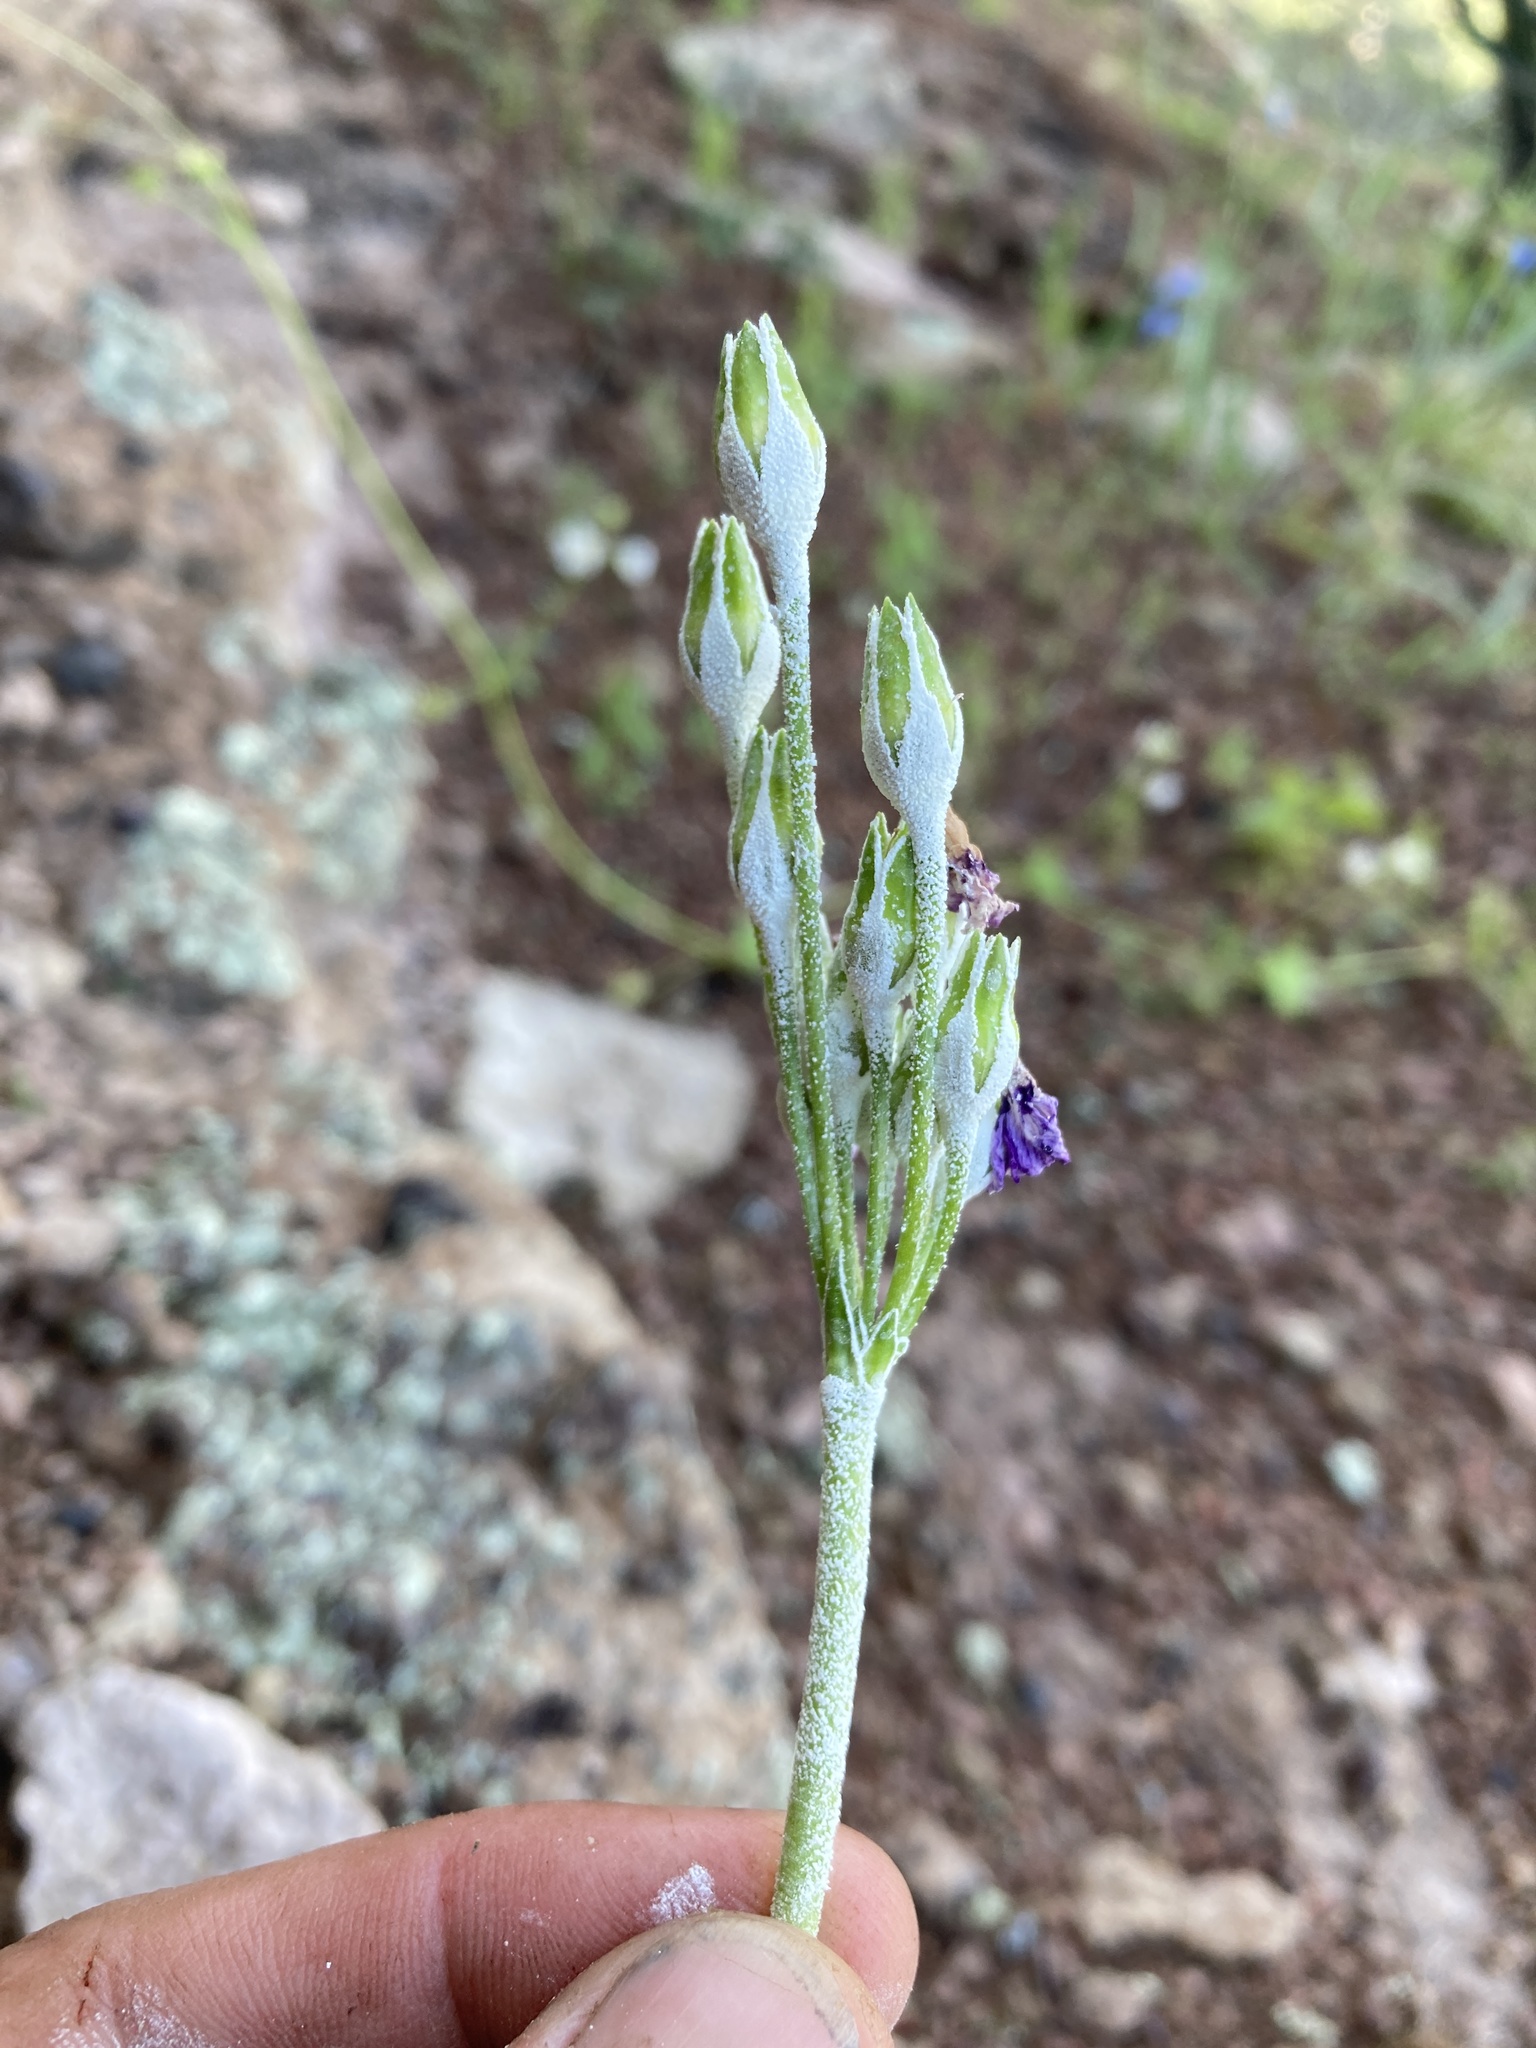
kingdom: Plantae
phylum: Tracheophyta
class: Magnoliopsida
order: Ericales
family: Primulaceae
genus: Primula
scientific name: Primula rusbyi
